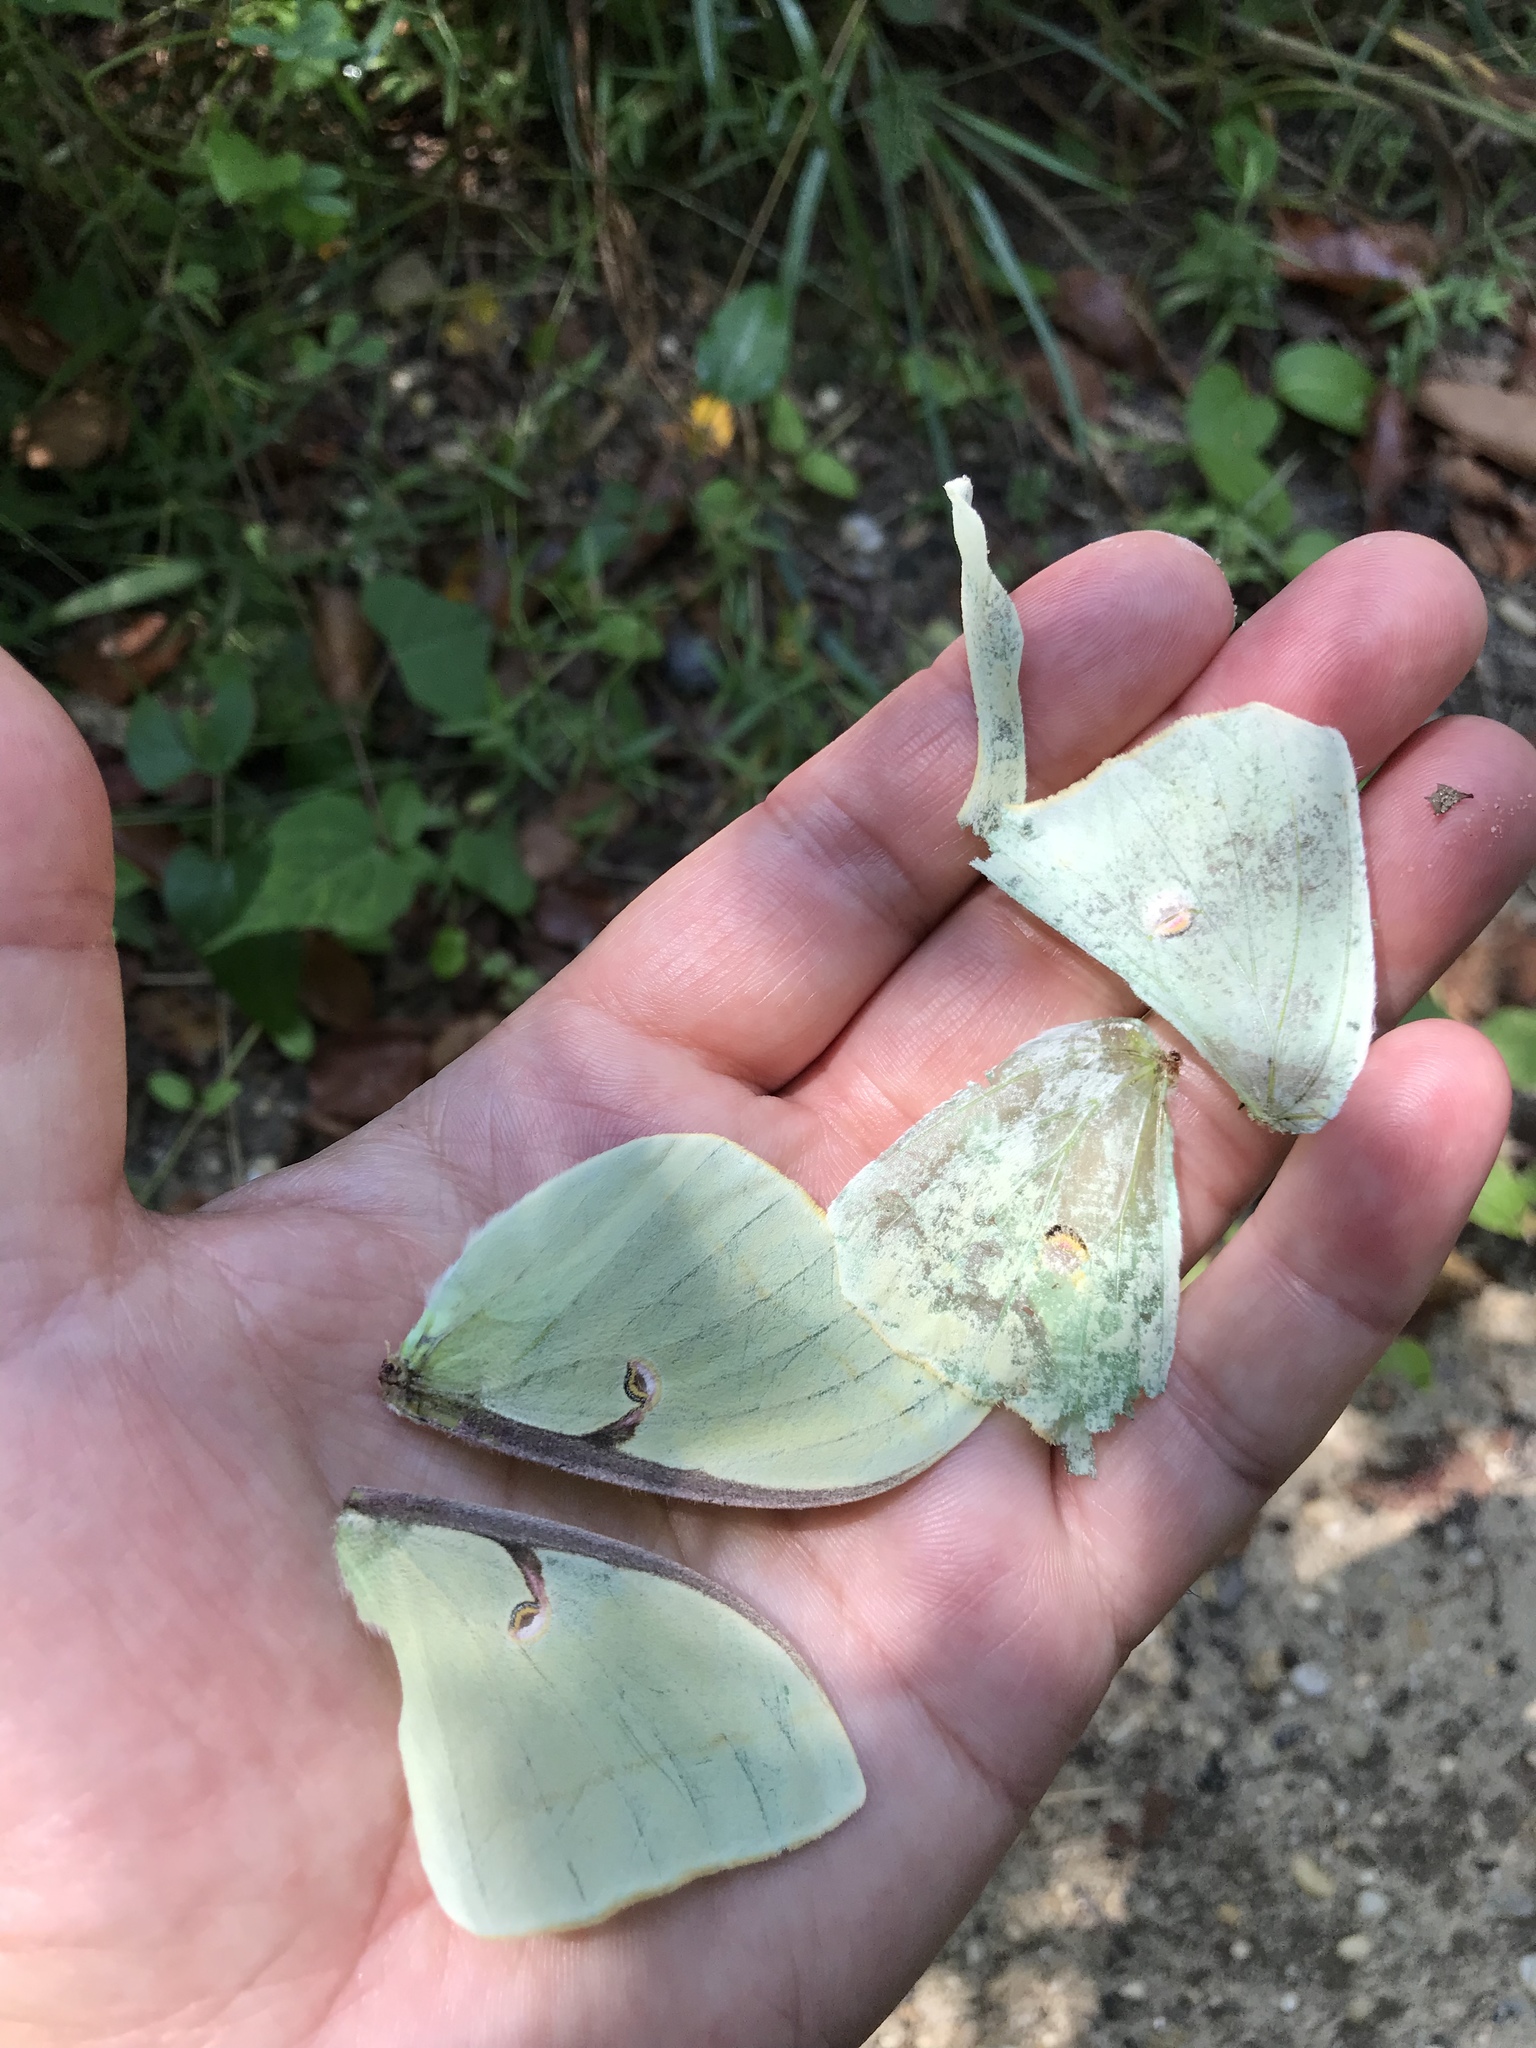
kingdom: Animalia
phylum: Arthropoda
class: Insecta
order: Lepidoptera
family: Saturniidae
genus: Actias
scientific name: Actias luna
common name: Luna moth
